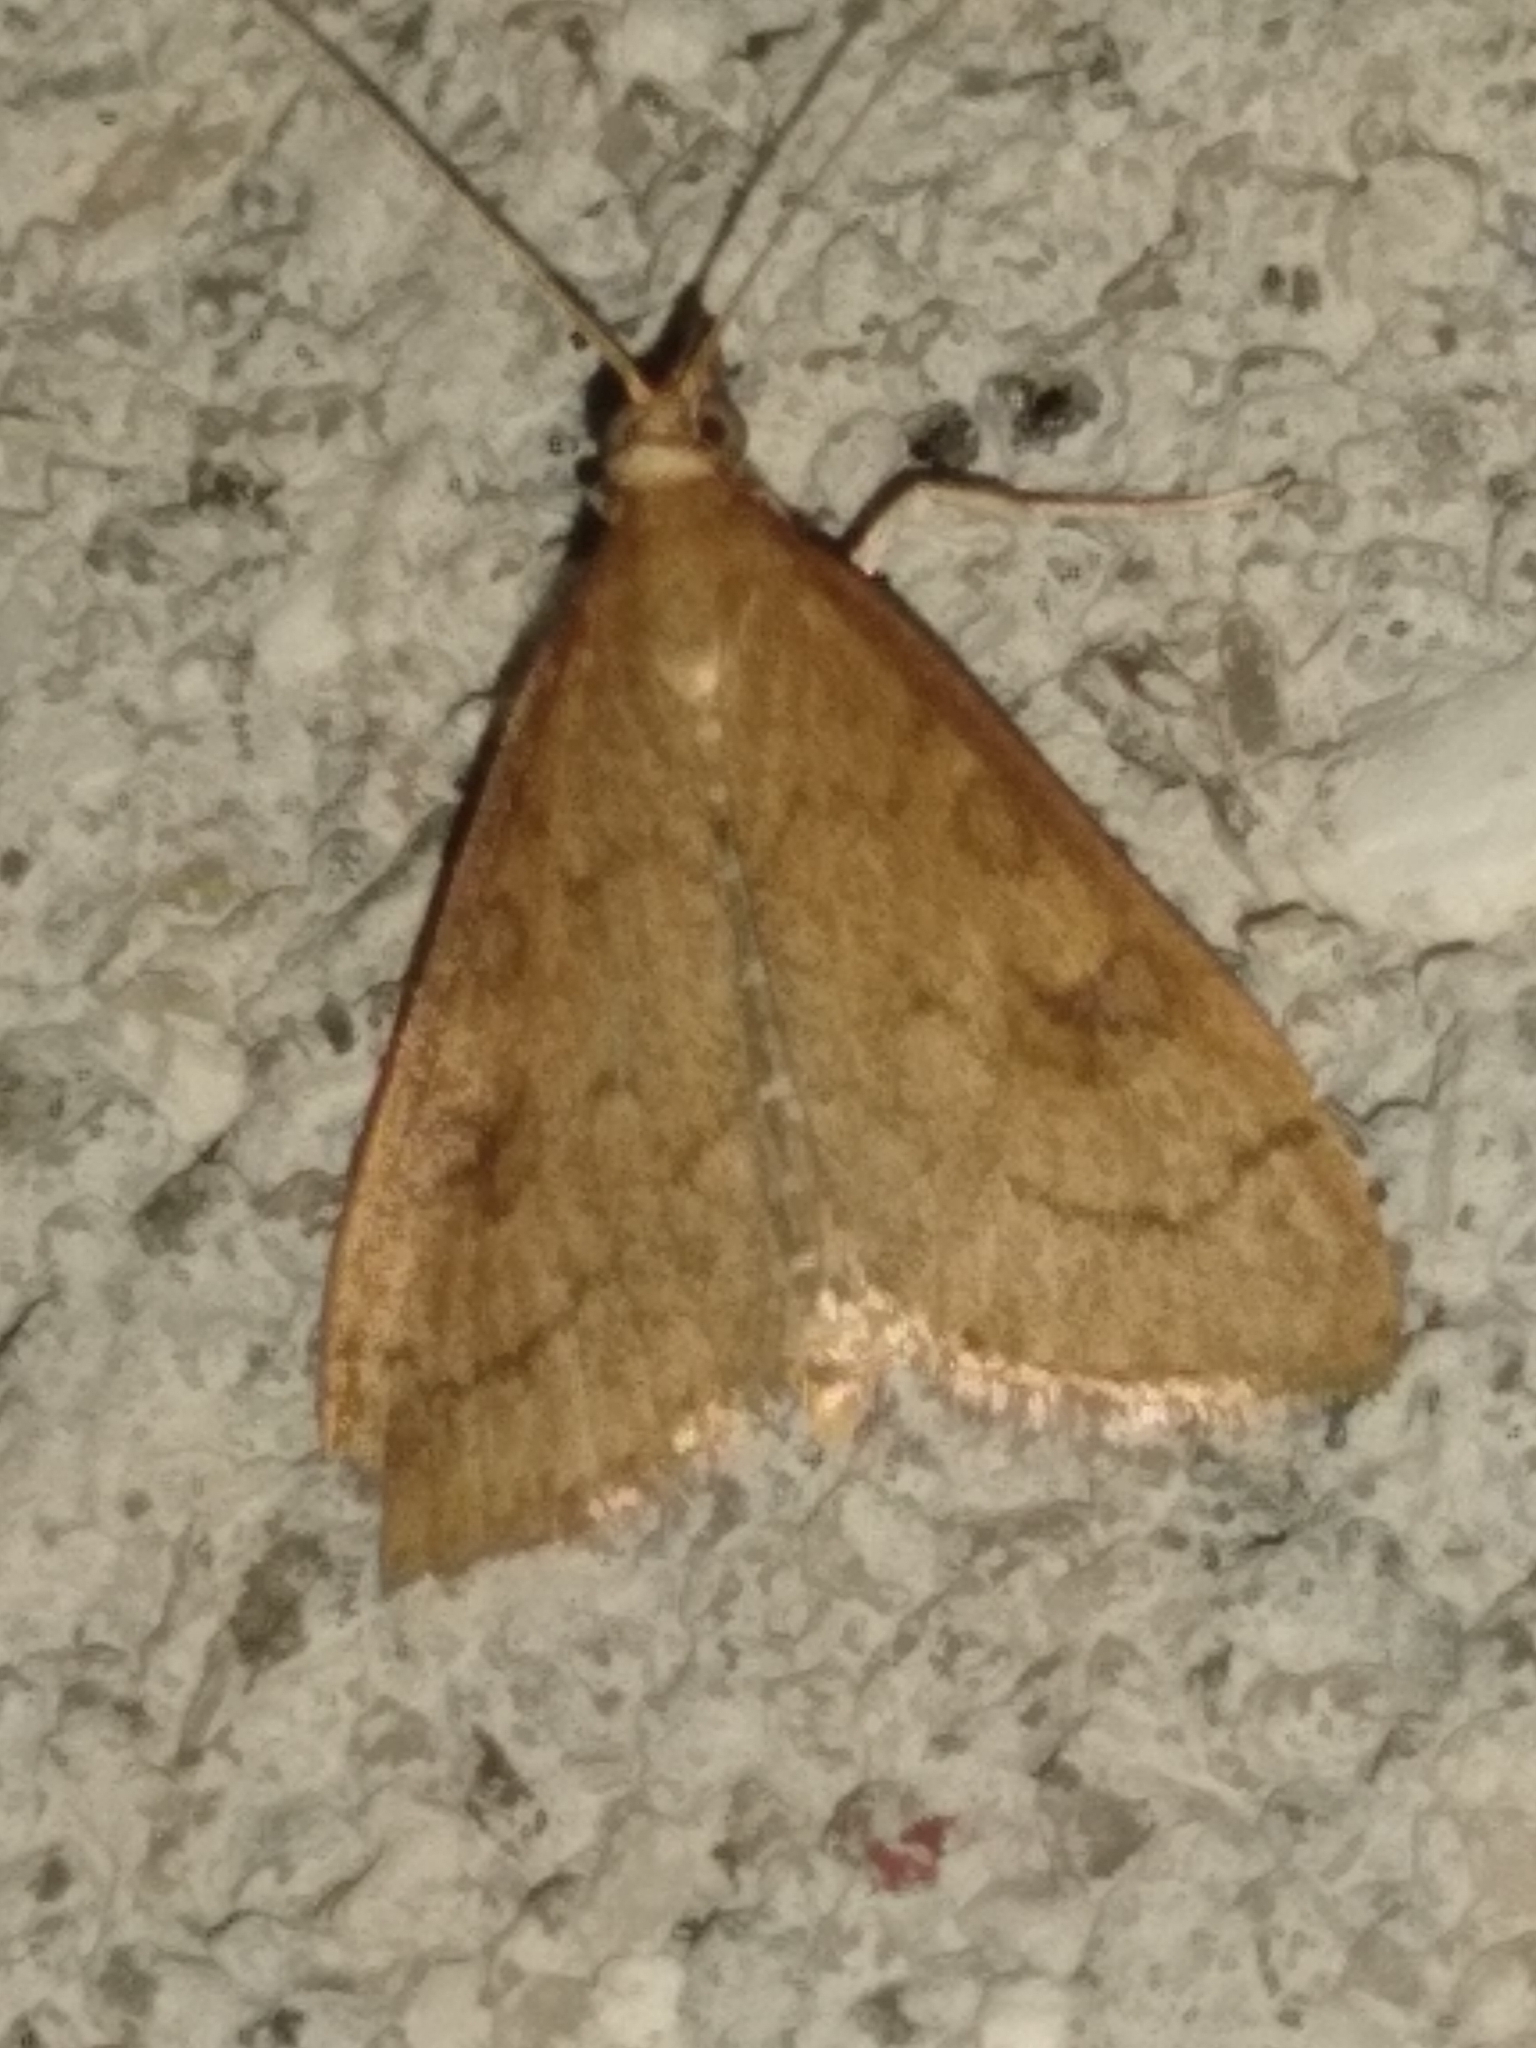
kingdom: Animalia
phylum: Arthropoda
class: Insecta
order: Lepidoptera
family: Crambidae
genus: Udea
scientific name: Udea rubigalis
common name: Celery leaftier moth
